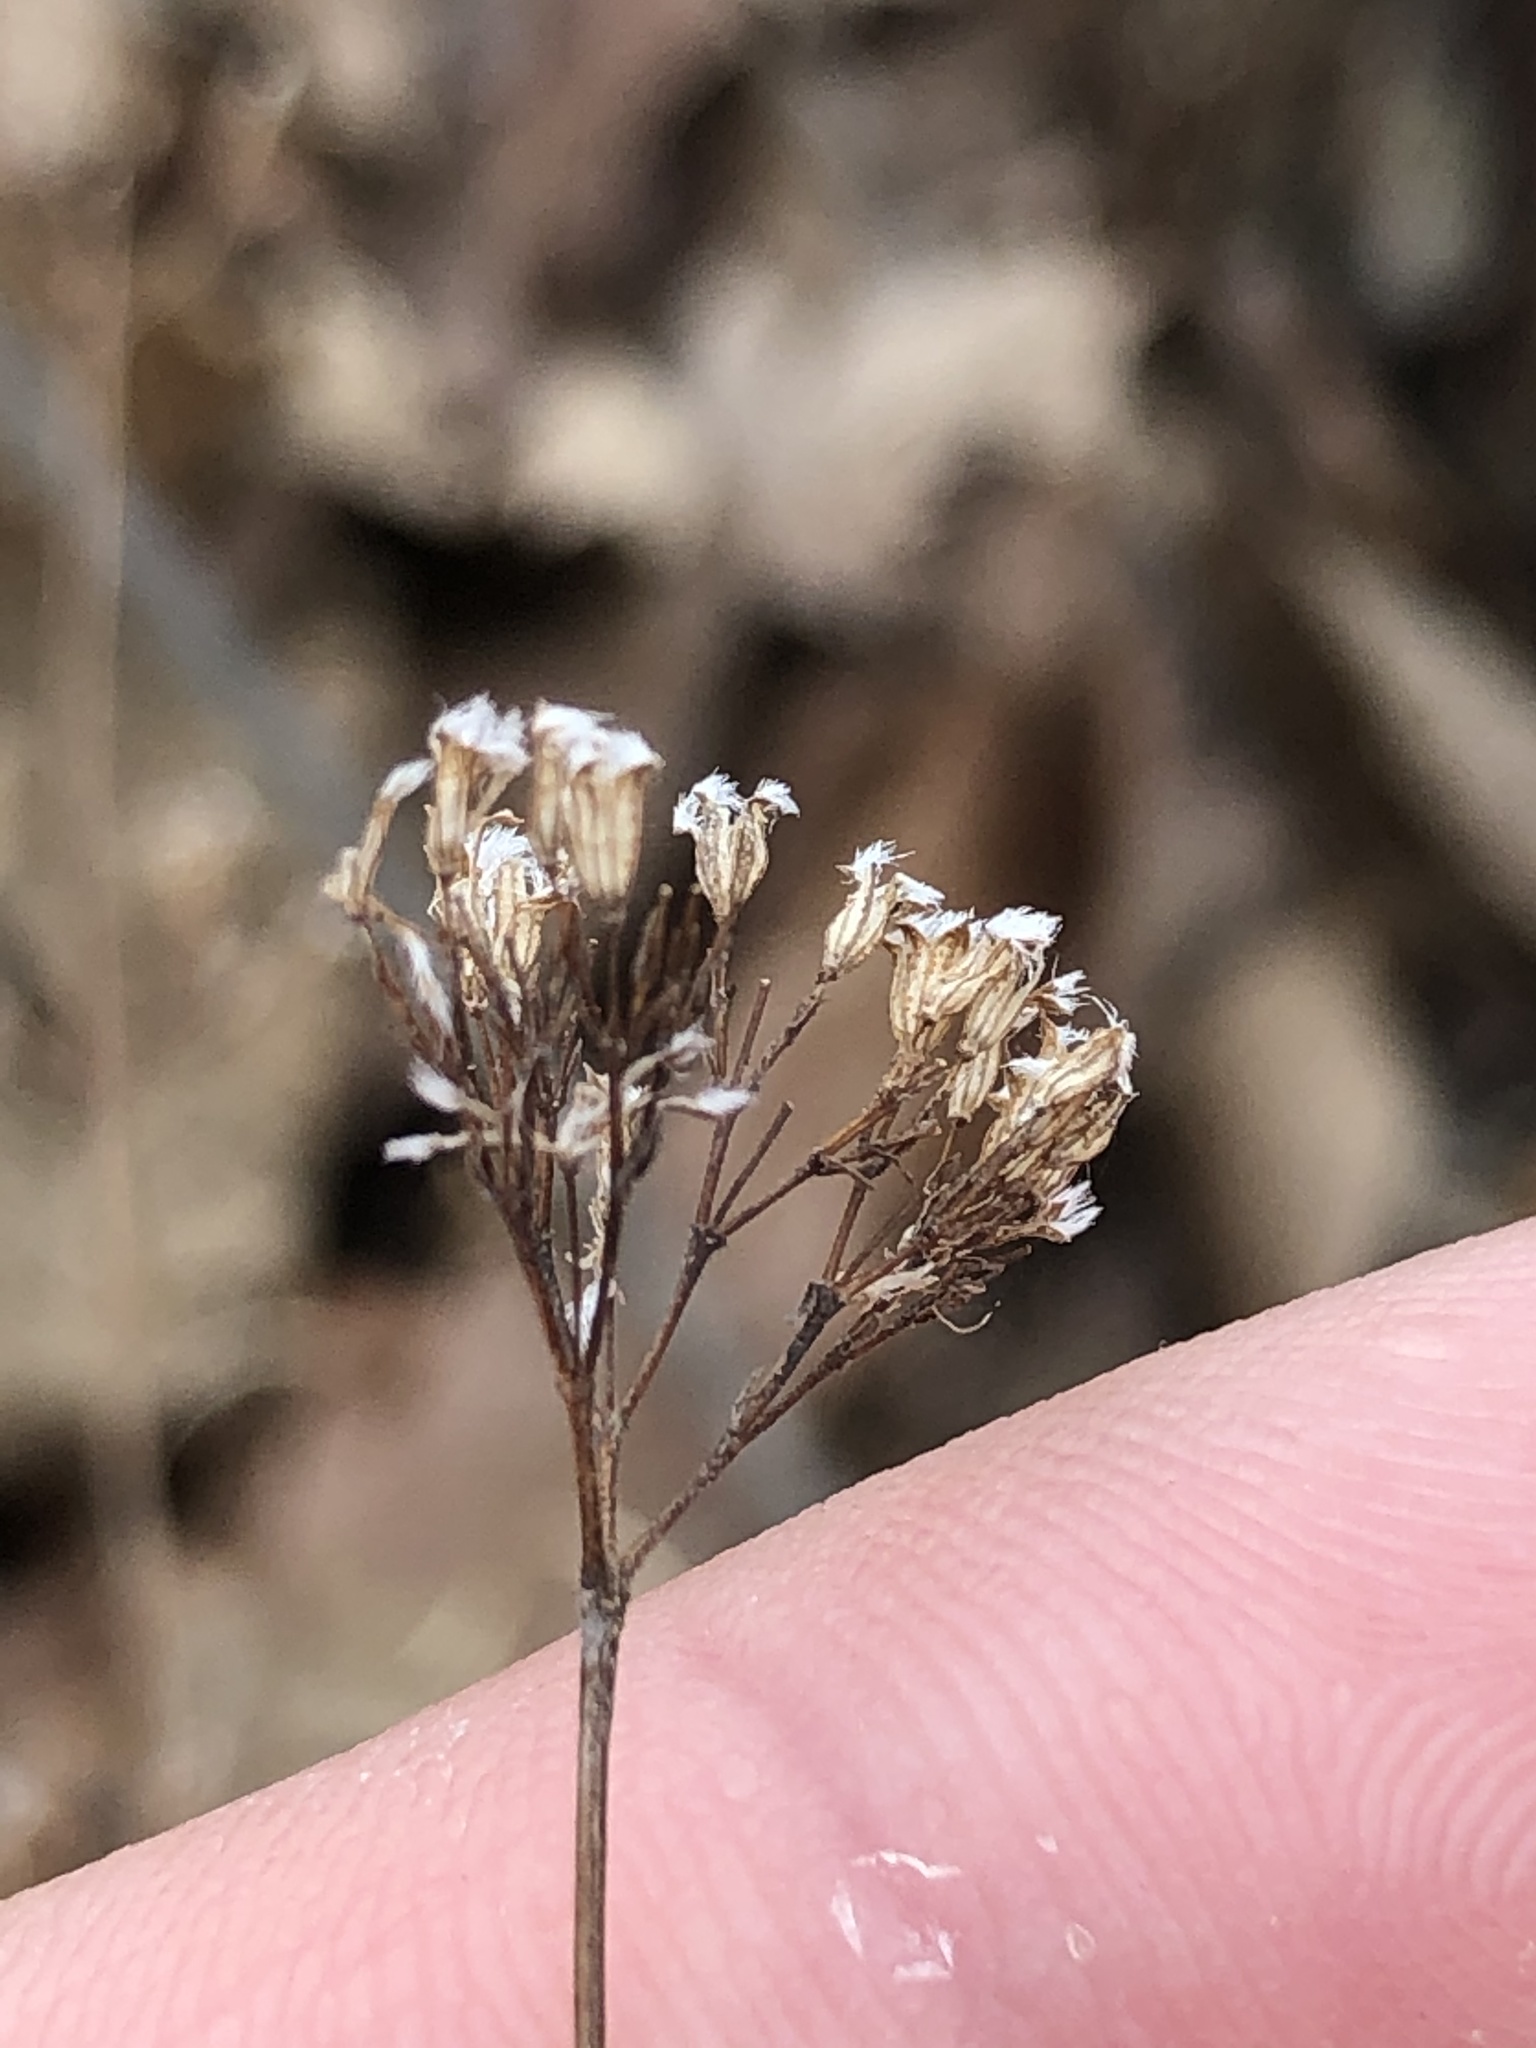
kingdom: Plantae
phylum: Tracheophyta
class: Magnoliopsida
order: Lamiales
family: Lamiaceae
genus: Cunila
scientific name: Cunila origanoides
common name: American dittany
